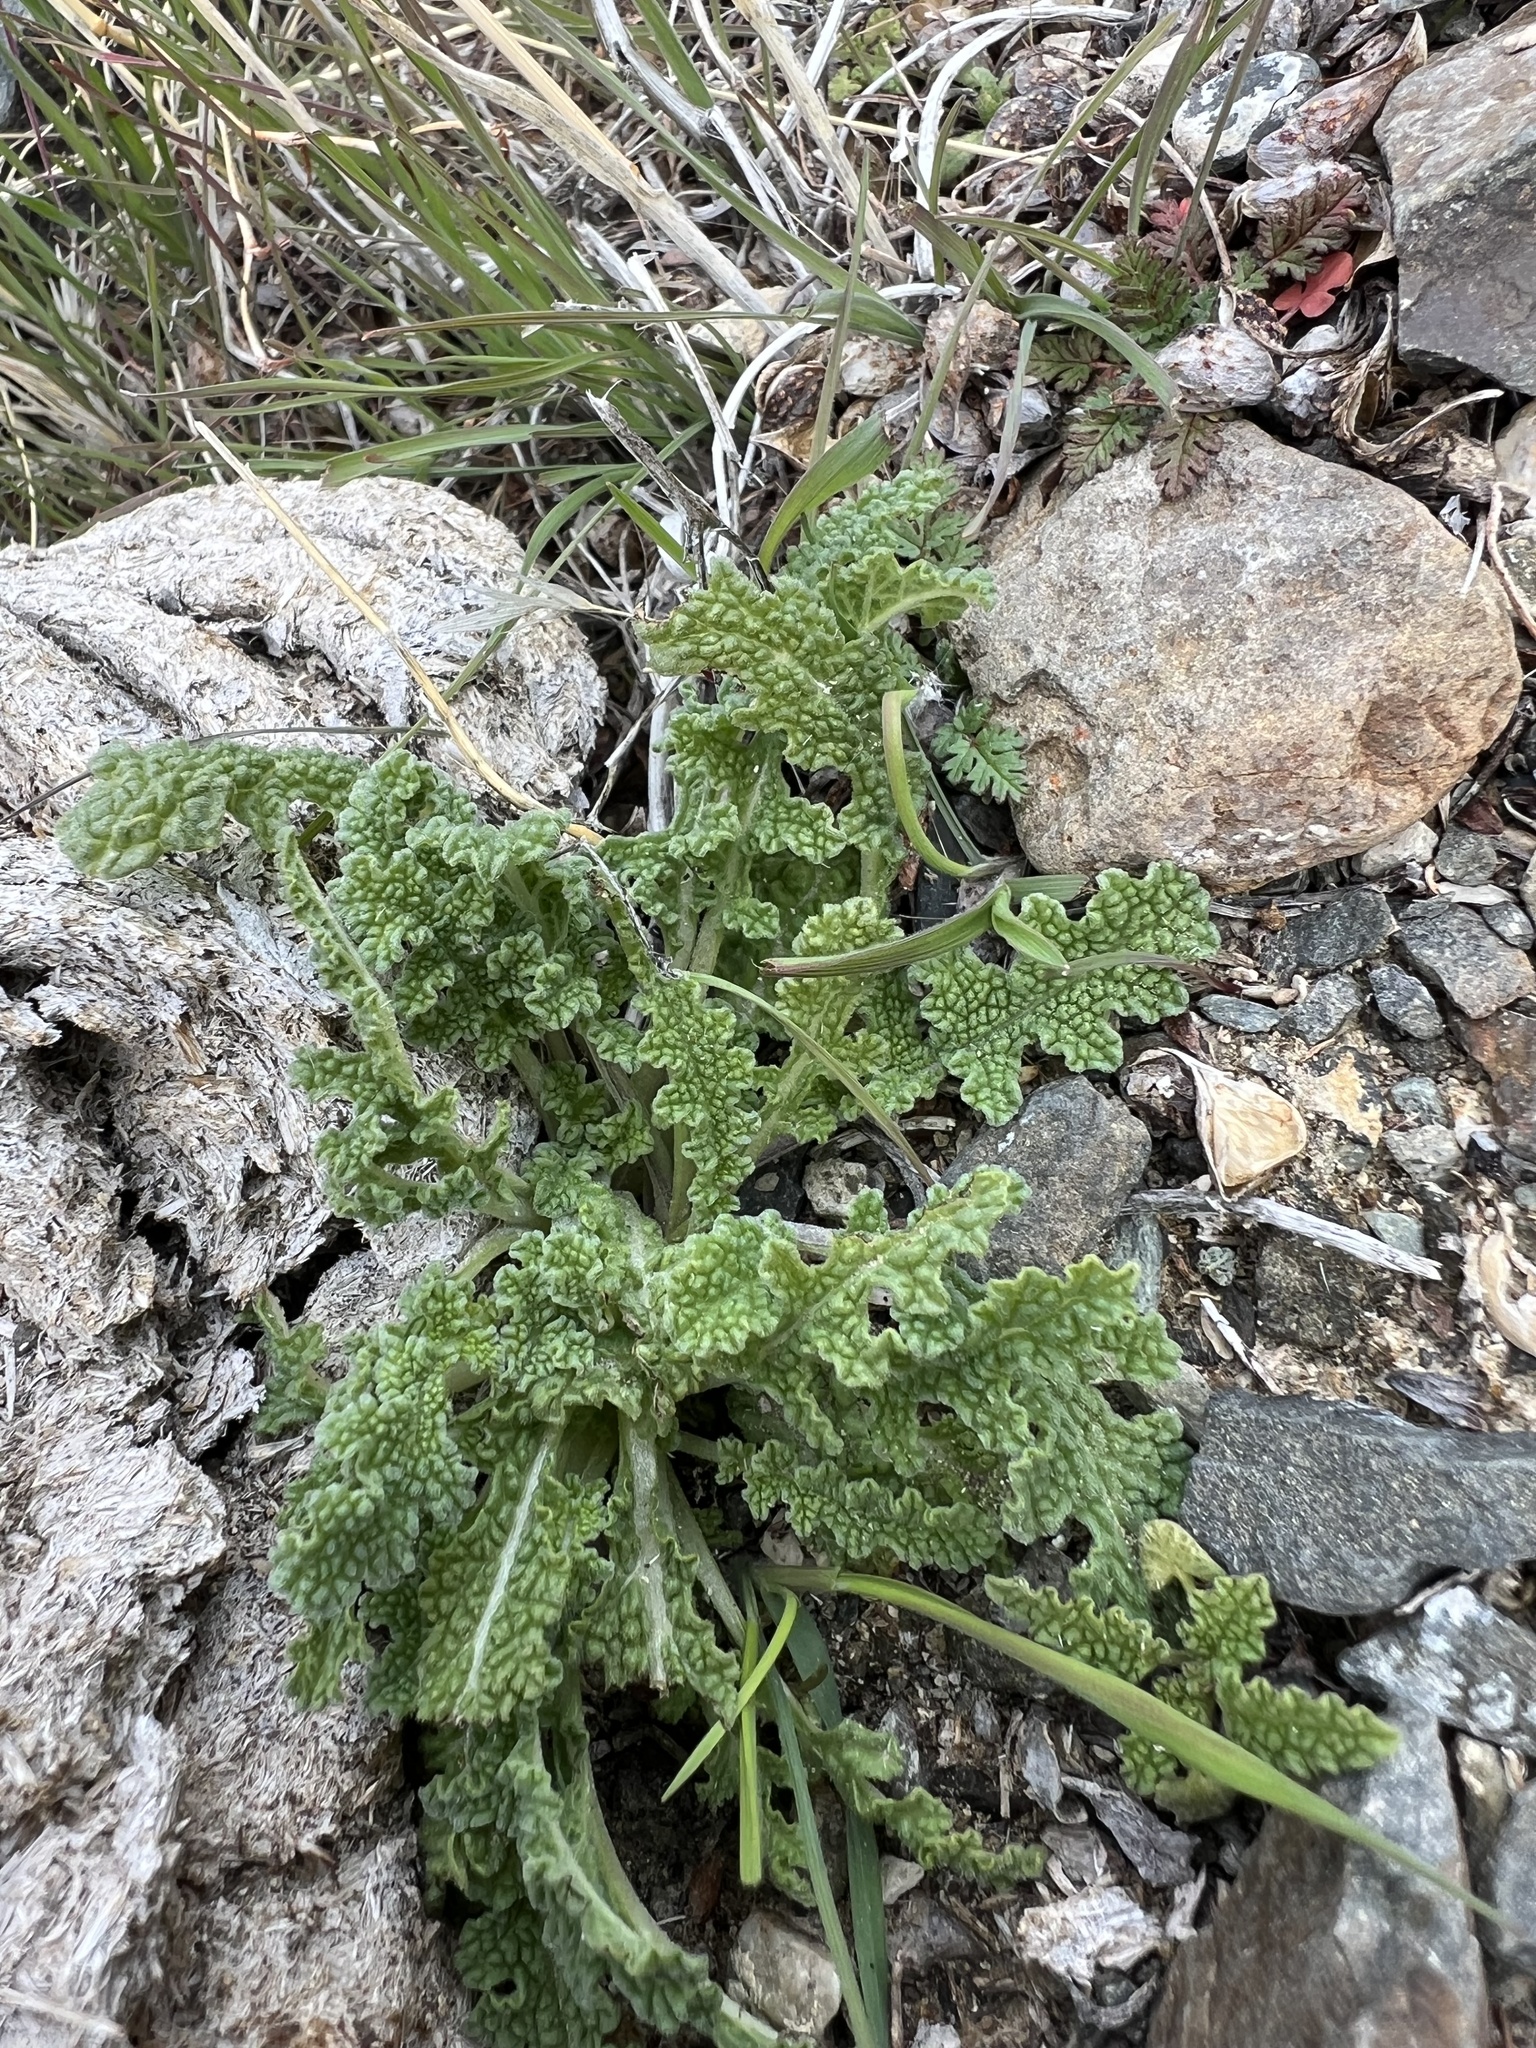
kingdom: Plantae
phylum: Tracheophyta
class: Magnoliopsida
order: Lamiales
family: Lamiaceae
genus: Salvia
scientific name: Salvia columbariae
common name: Chia
